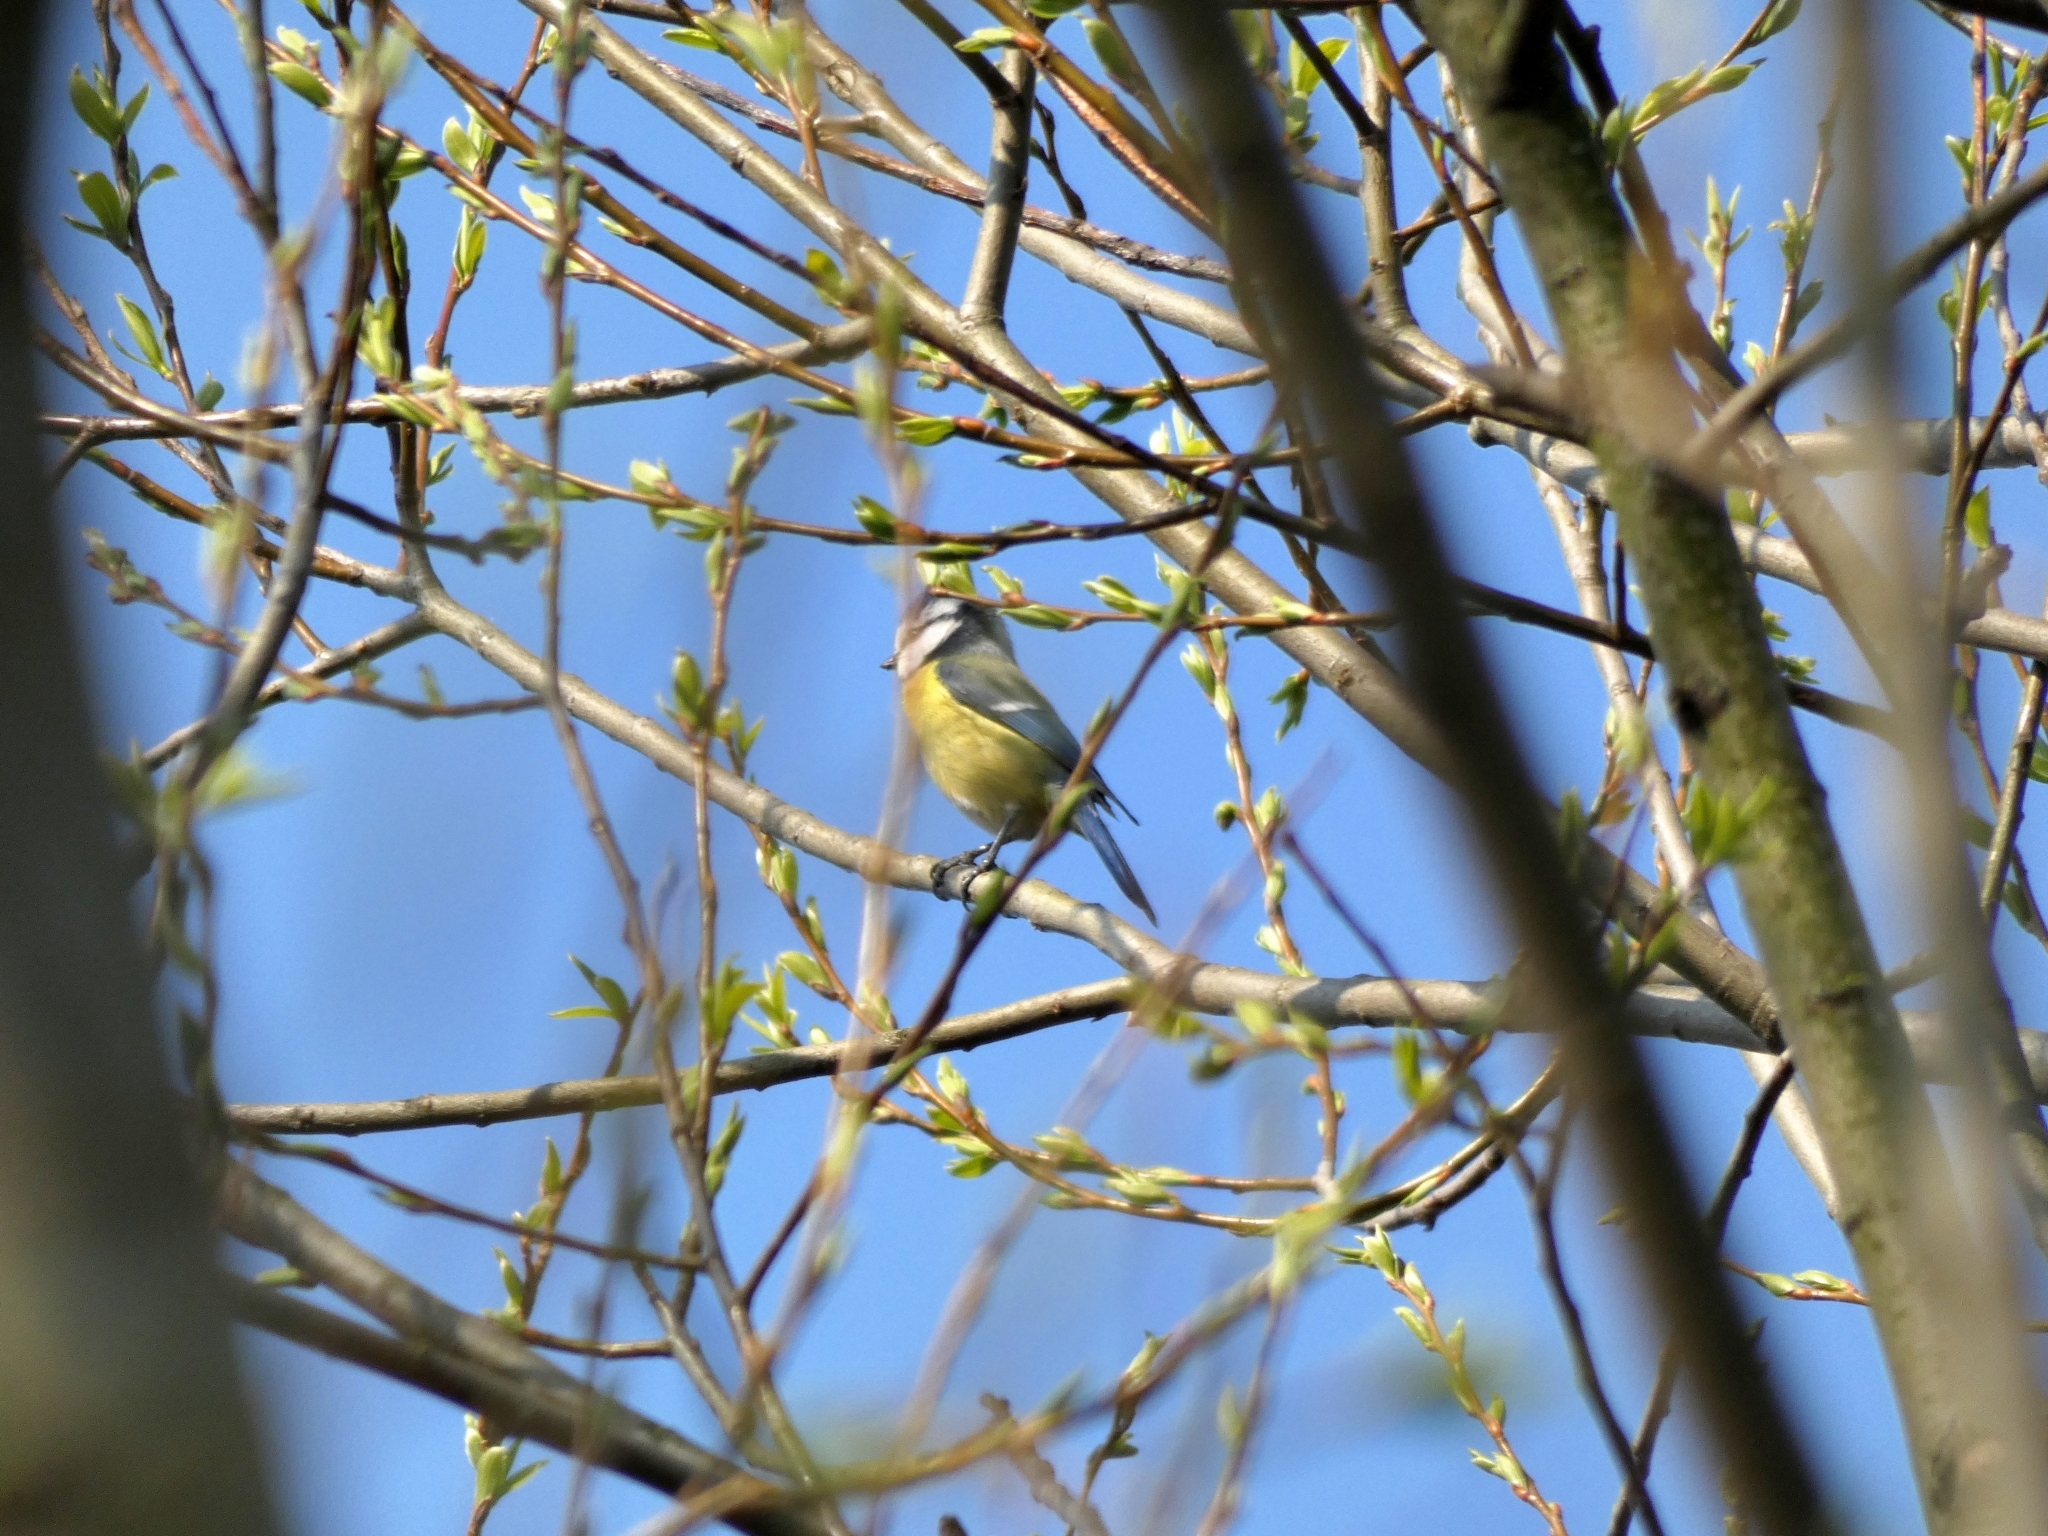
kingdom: Animalia
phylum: Chordata
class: Aves
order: Passeriformes
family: Paridae
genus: Cyanistes
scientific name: Cyanistes caeruleus
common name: Eurasian blue tit
